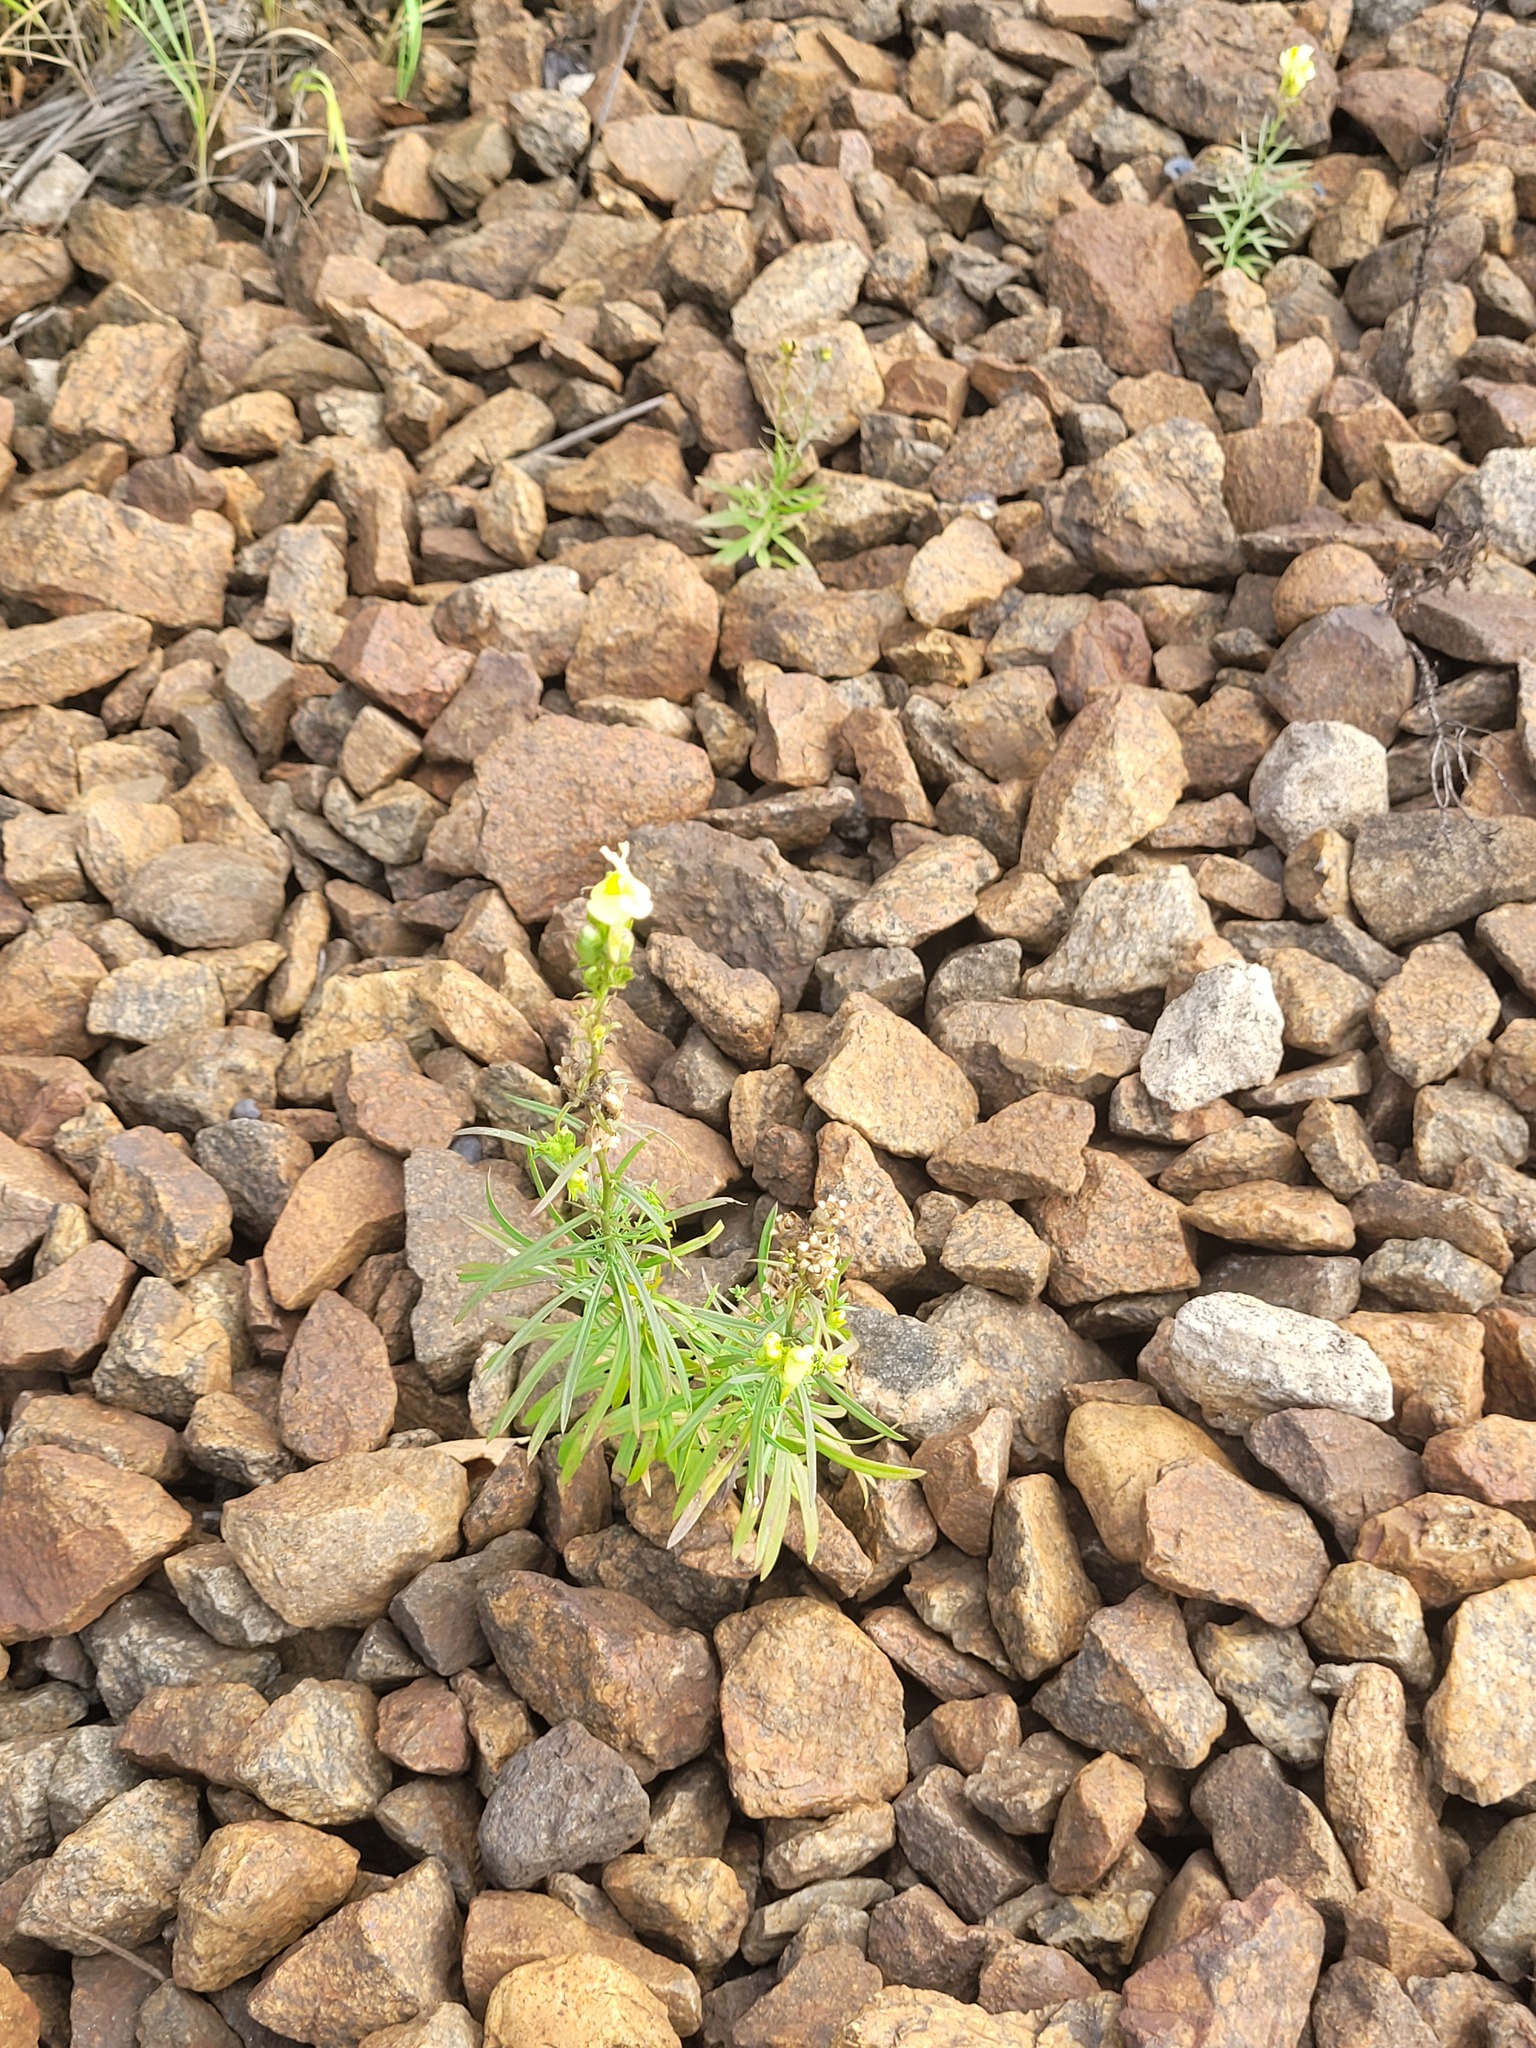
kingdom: Plantae
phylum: Tracheophyta
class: Magnoliopsida
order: Lamiales
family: Plantaginaceae
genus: Linaria
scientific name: Linaria vulgaris
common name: Butter and eggs
